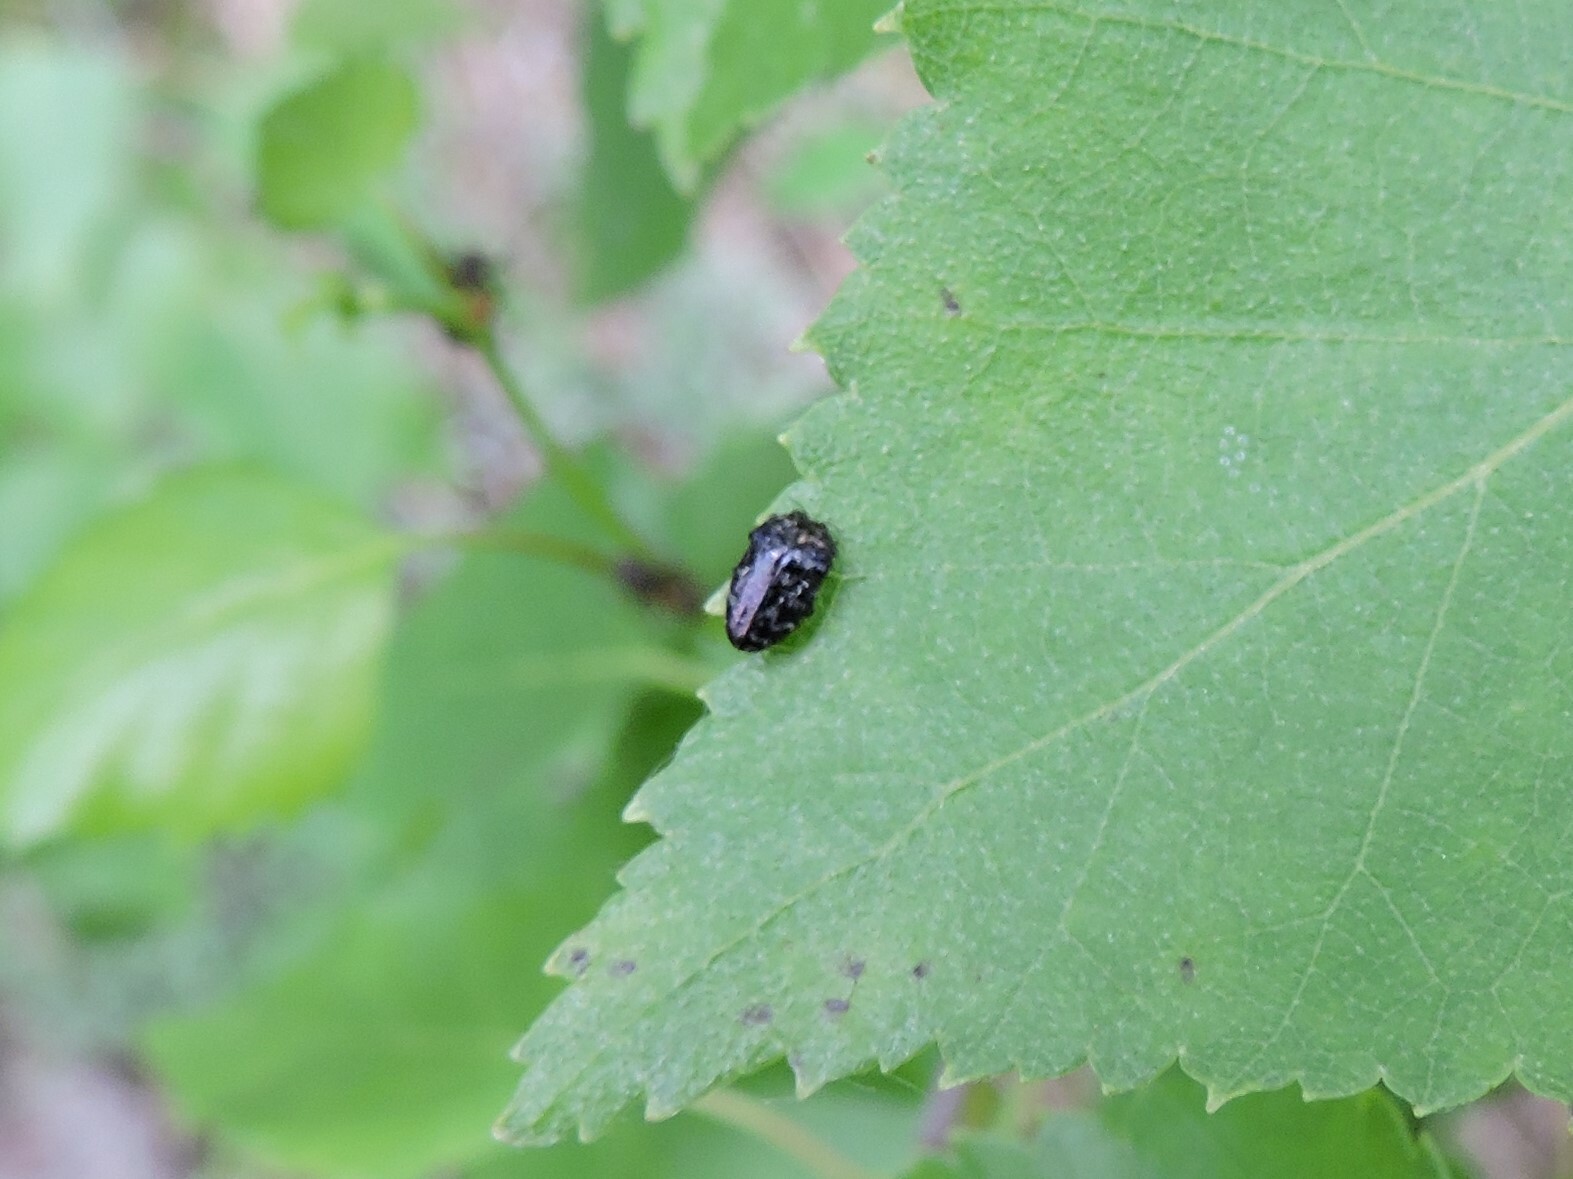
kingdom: Animalia
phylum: Arthropoda
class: Insecta
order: Coleoptera
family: Buprestidae
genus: Trachys
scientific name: Trachys minutus
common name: Metallic wood-boring beetle
